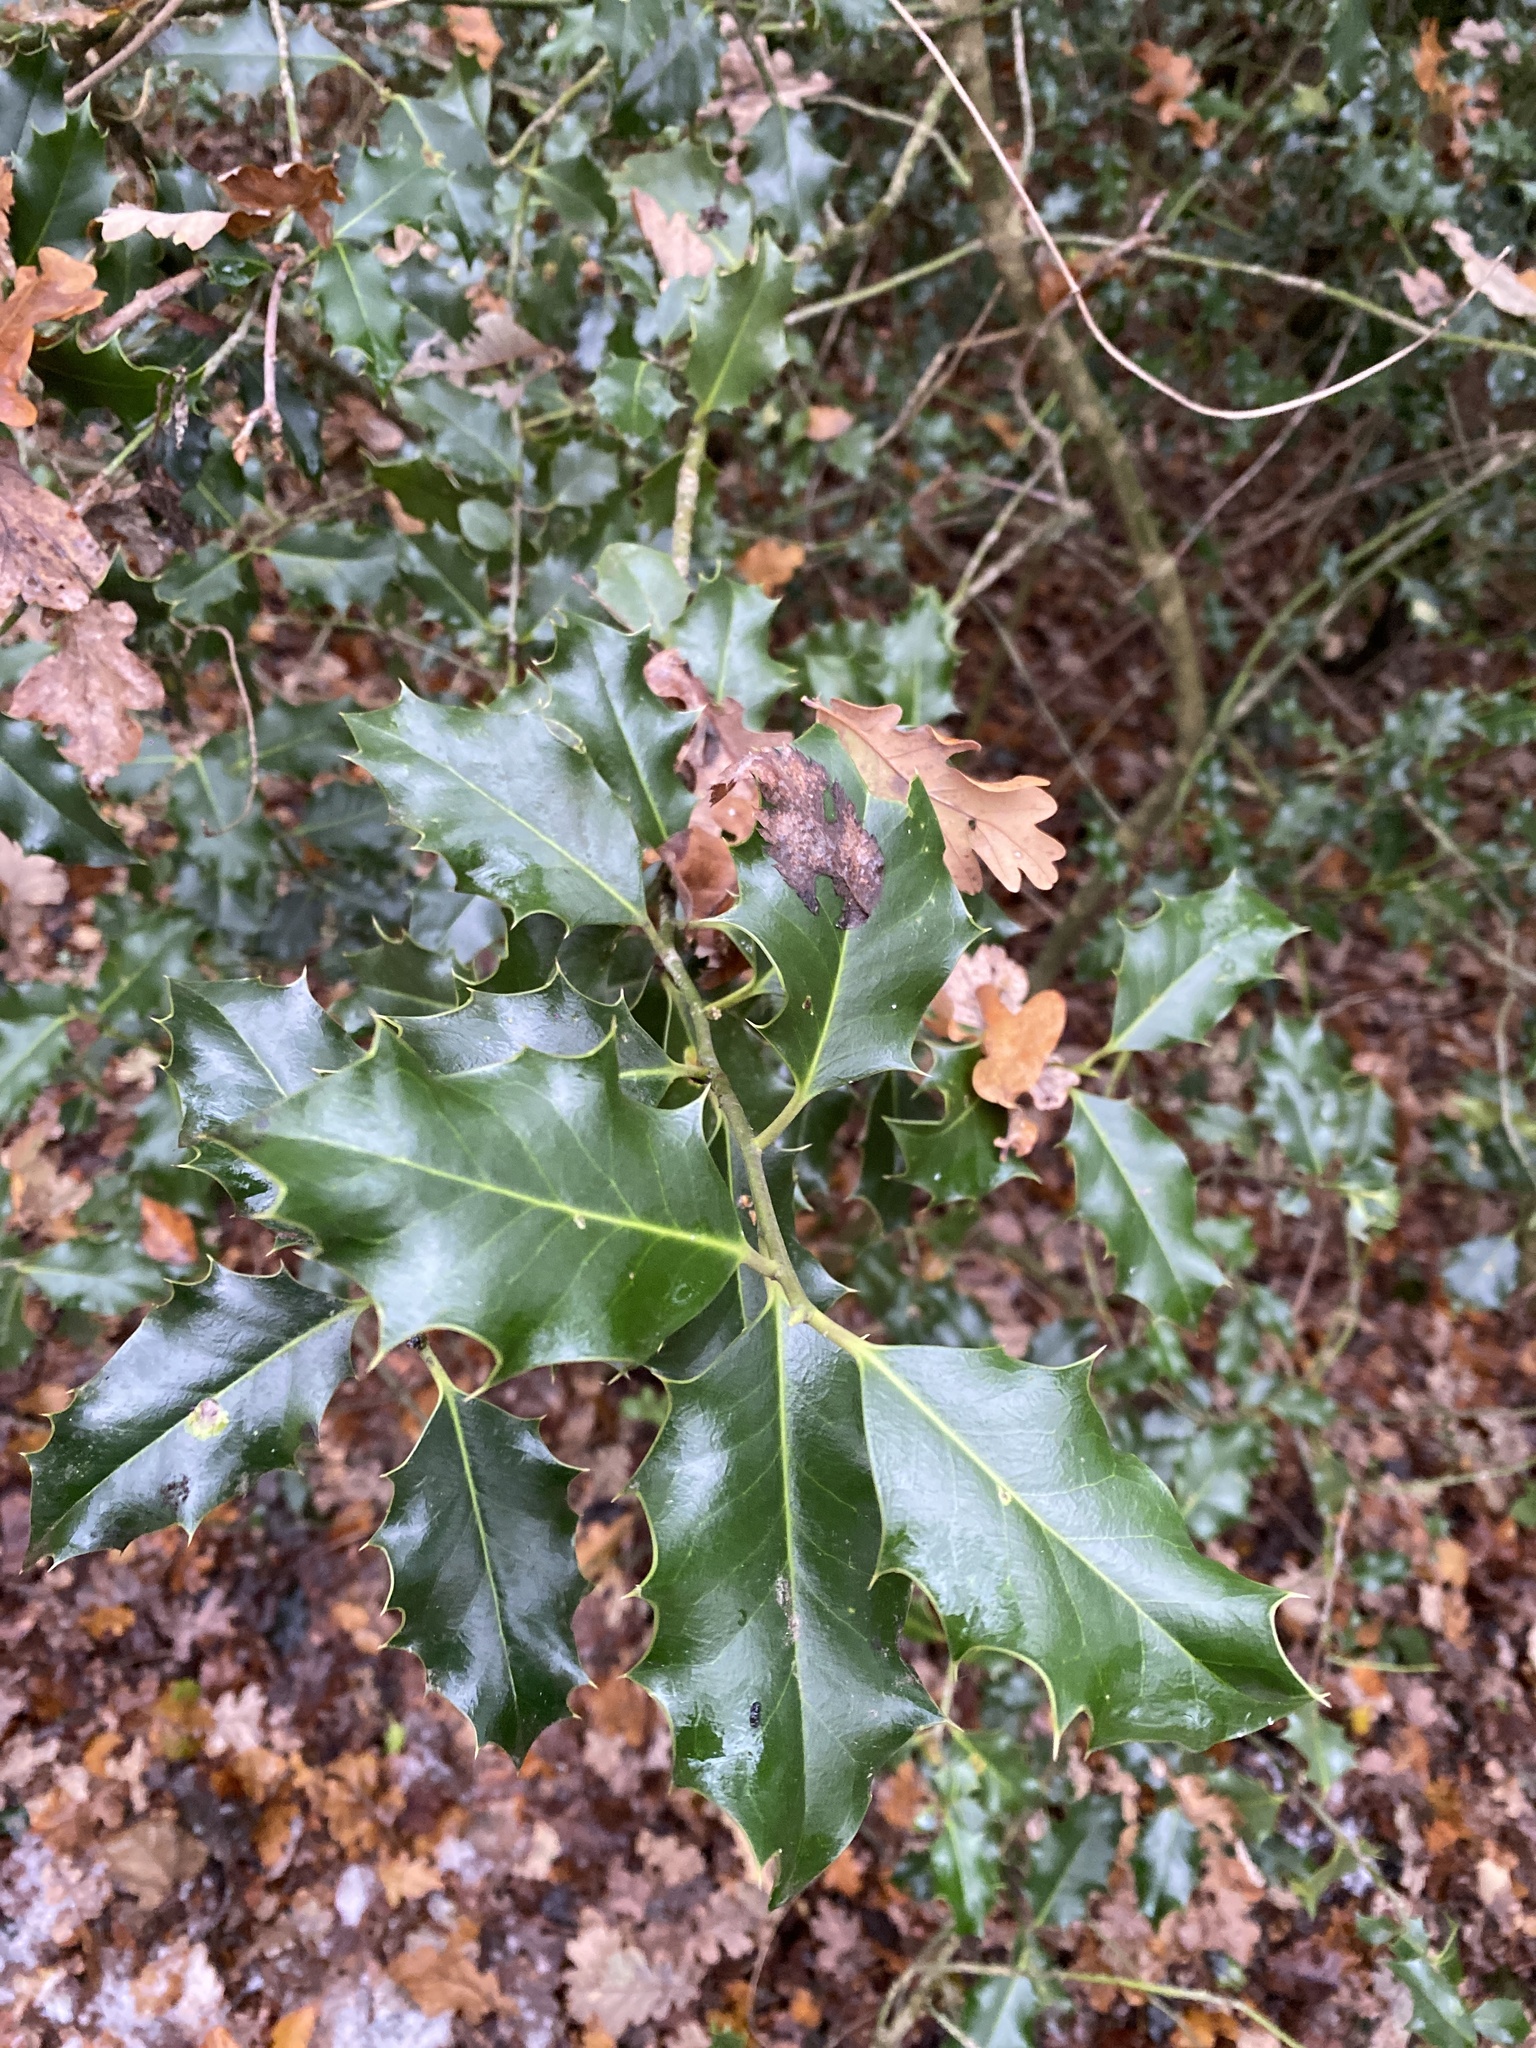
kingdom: Plantae
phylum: Tracheophyta
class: Magnoliopsida
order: Aquifoliales
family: Aquifoliaceae
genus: Ilex
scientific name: Ilex aquifolium
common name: English holly
